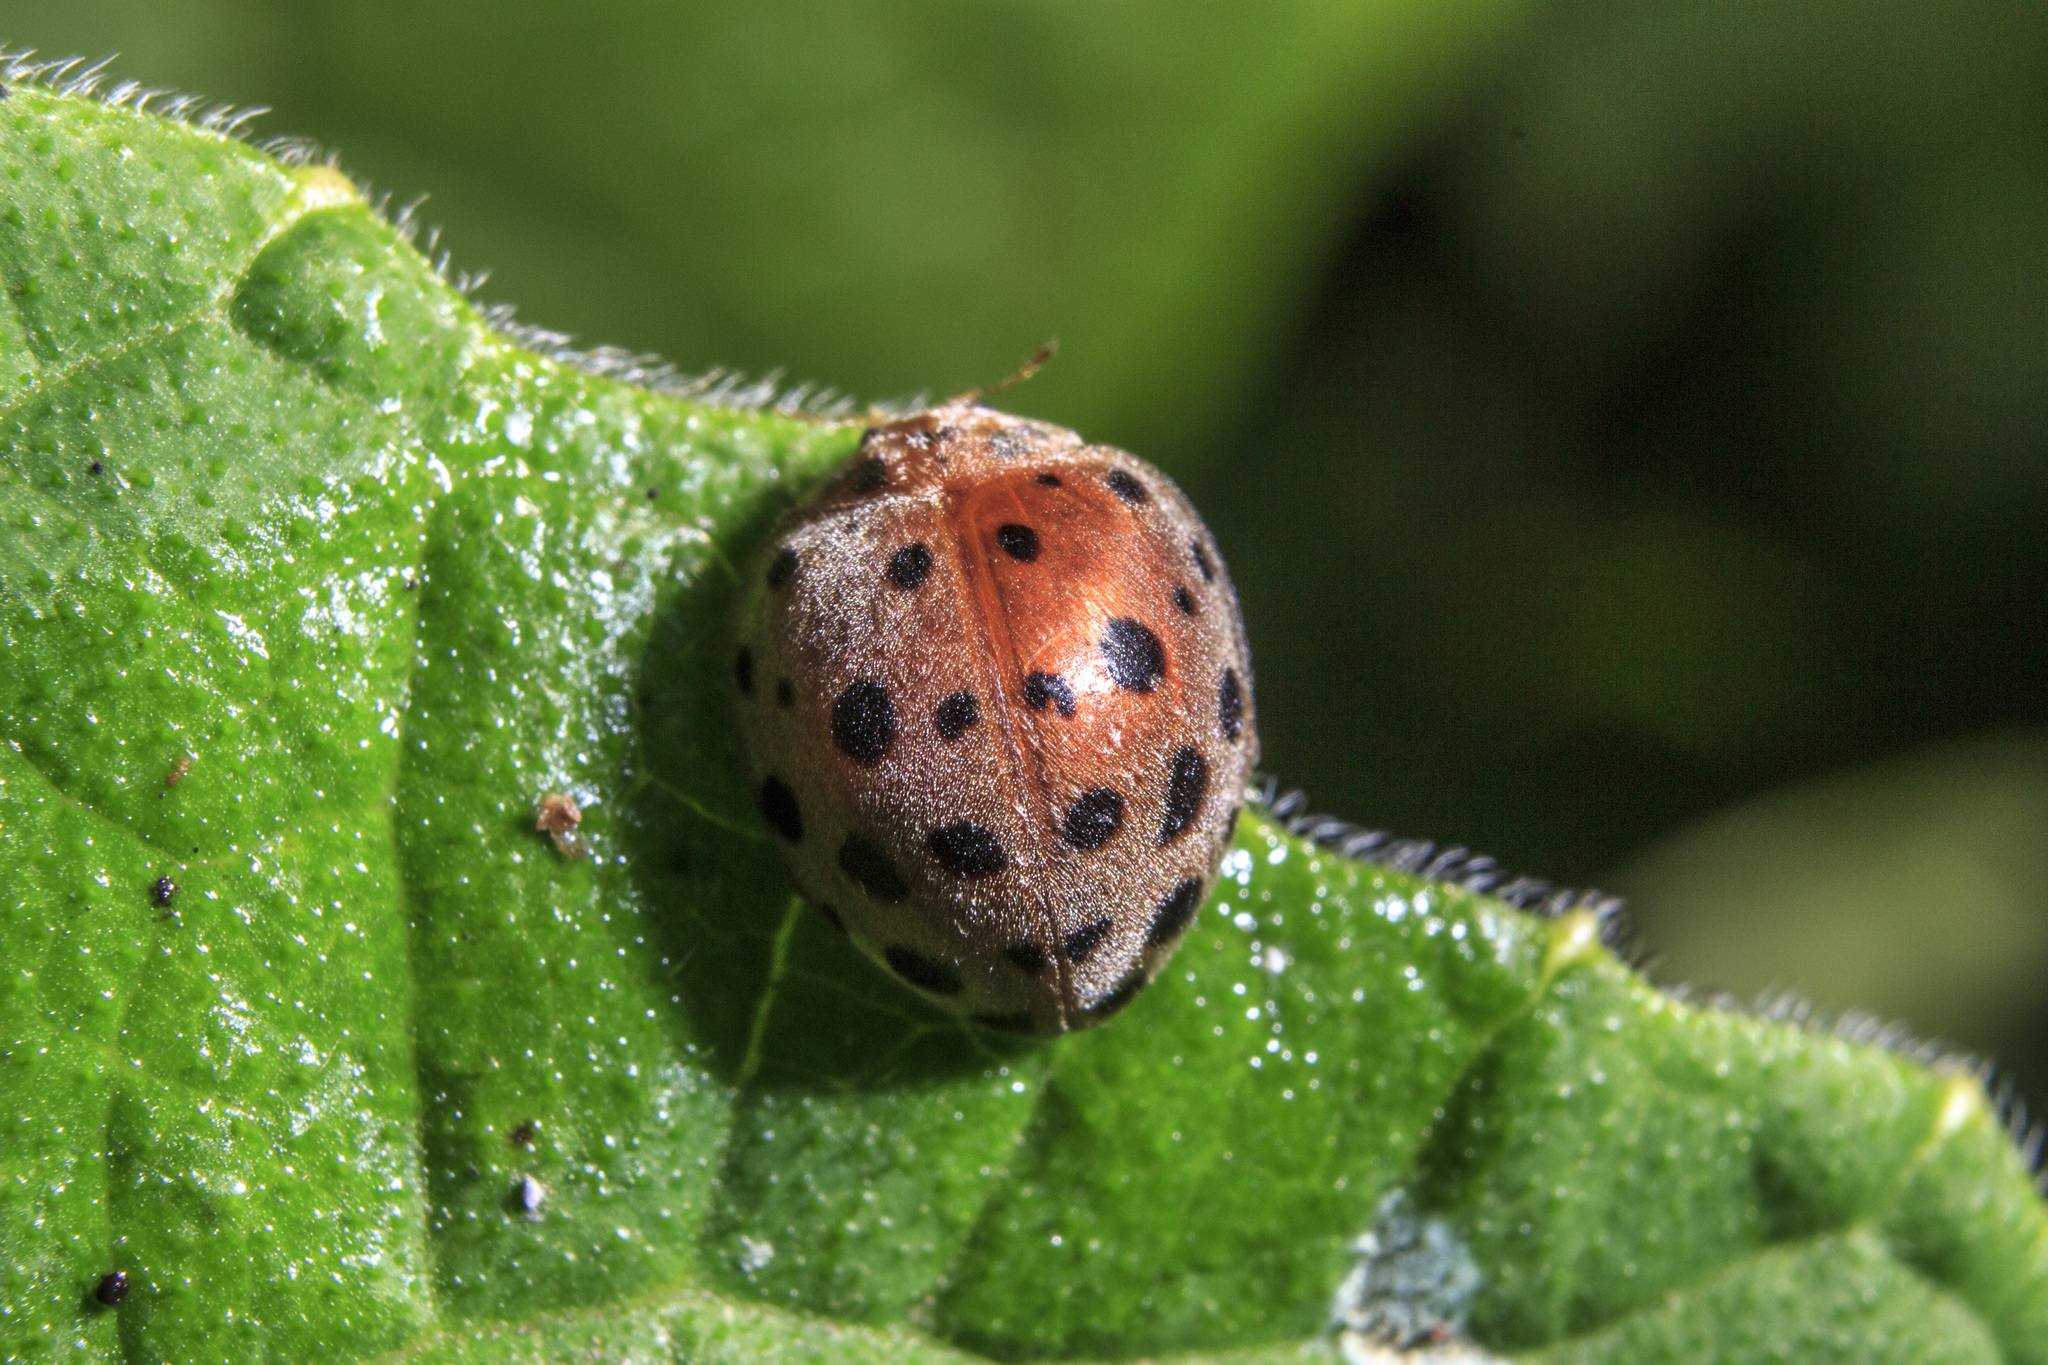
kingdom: Animalia
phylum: Arthropoda
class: Insecta
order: Coleoptera
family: Coccinellidae
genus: Henosepilachna
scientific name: Henosepilachna vigintioctopunctata
